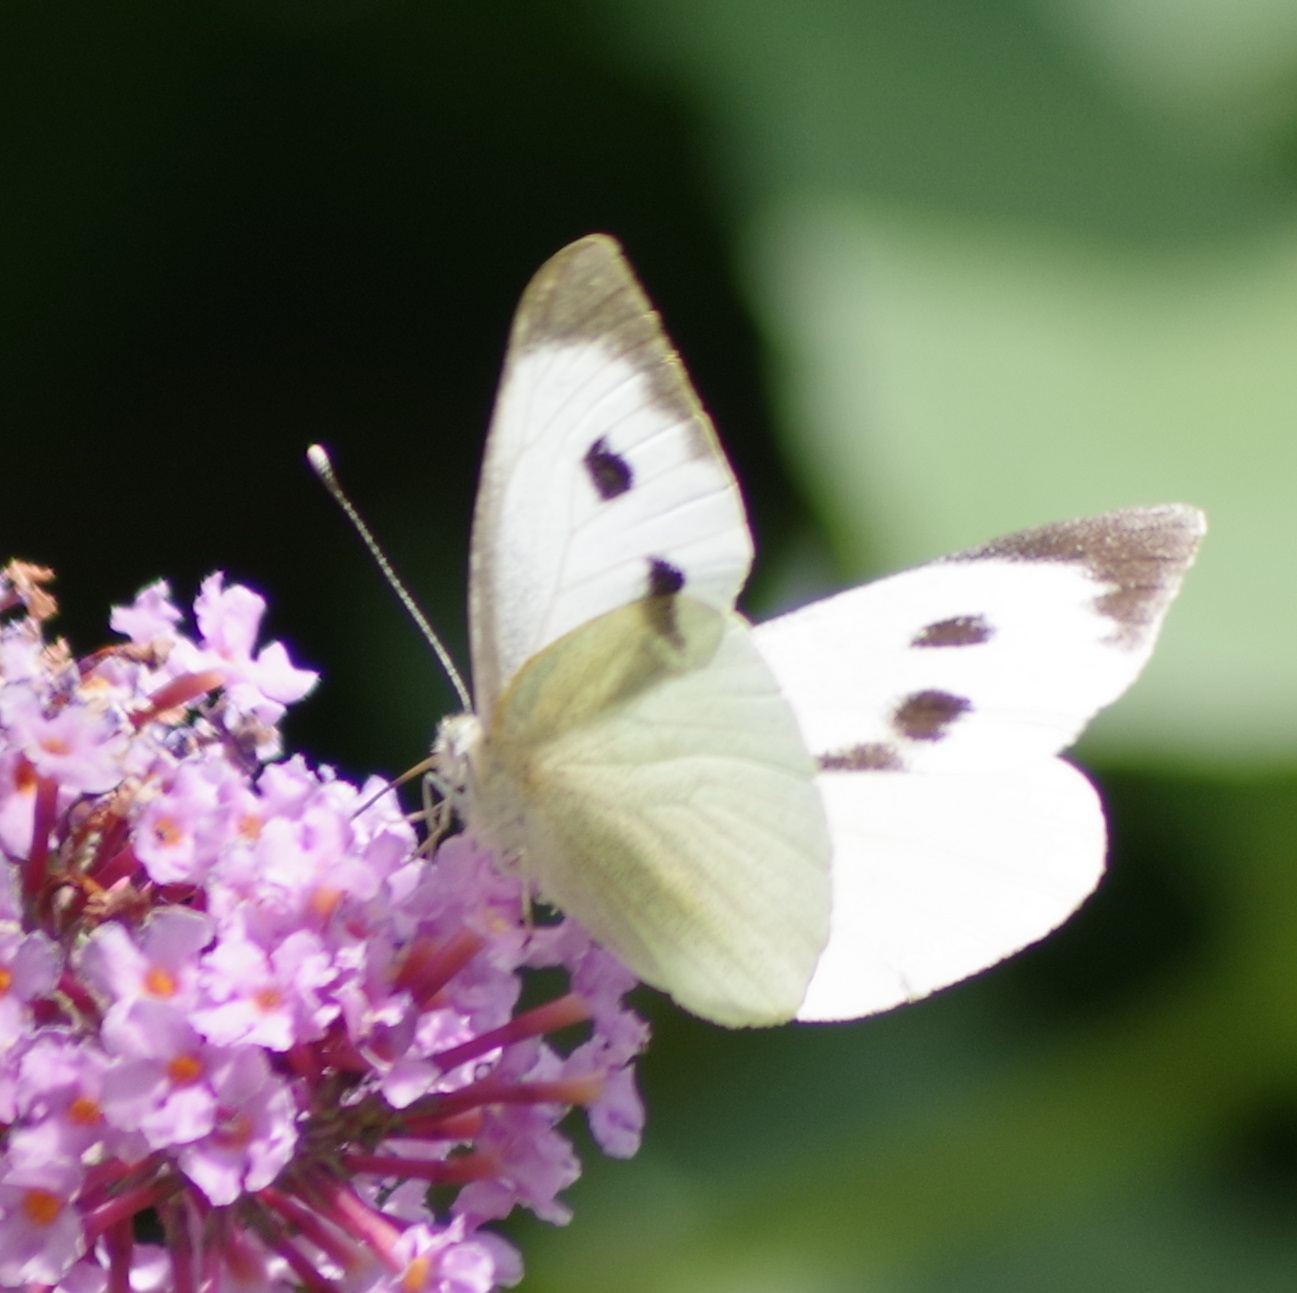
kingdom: Animalia
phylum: Arthropoda
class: Insecta
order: Lepidoptera
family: Pieridae
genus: Pieris
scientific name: Pieris brassicae
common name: Large white
